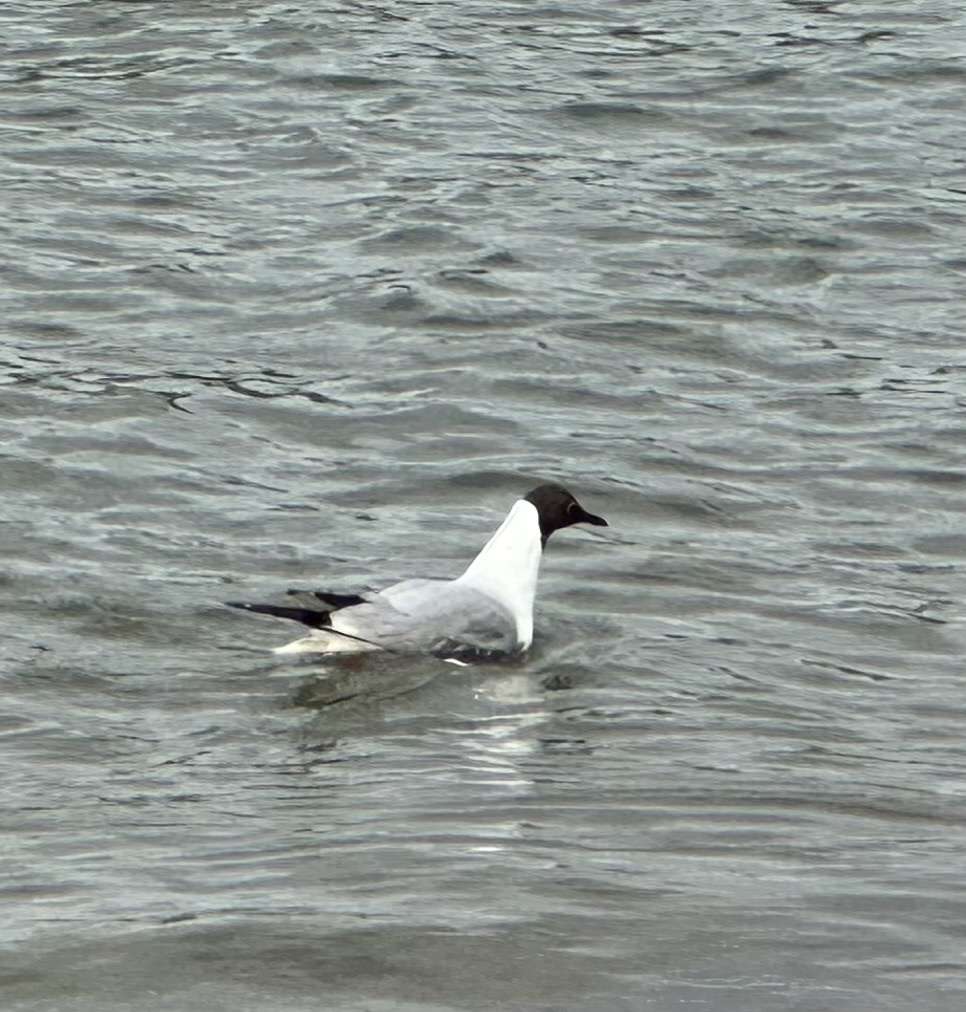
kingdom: Animalia
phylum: Chordata
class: Aves
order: Charadriiformes
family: Laridae
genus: Chroicocephalus
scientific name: Chroicocephalus ridibundus
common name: Black-headed gull
